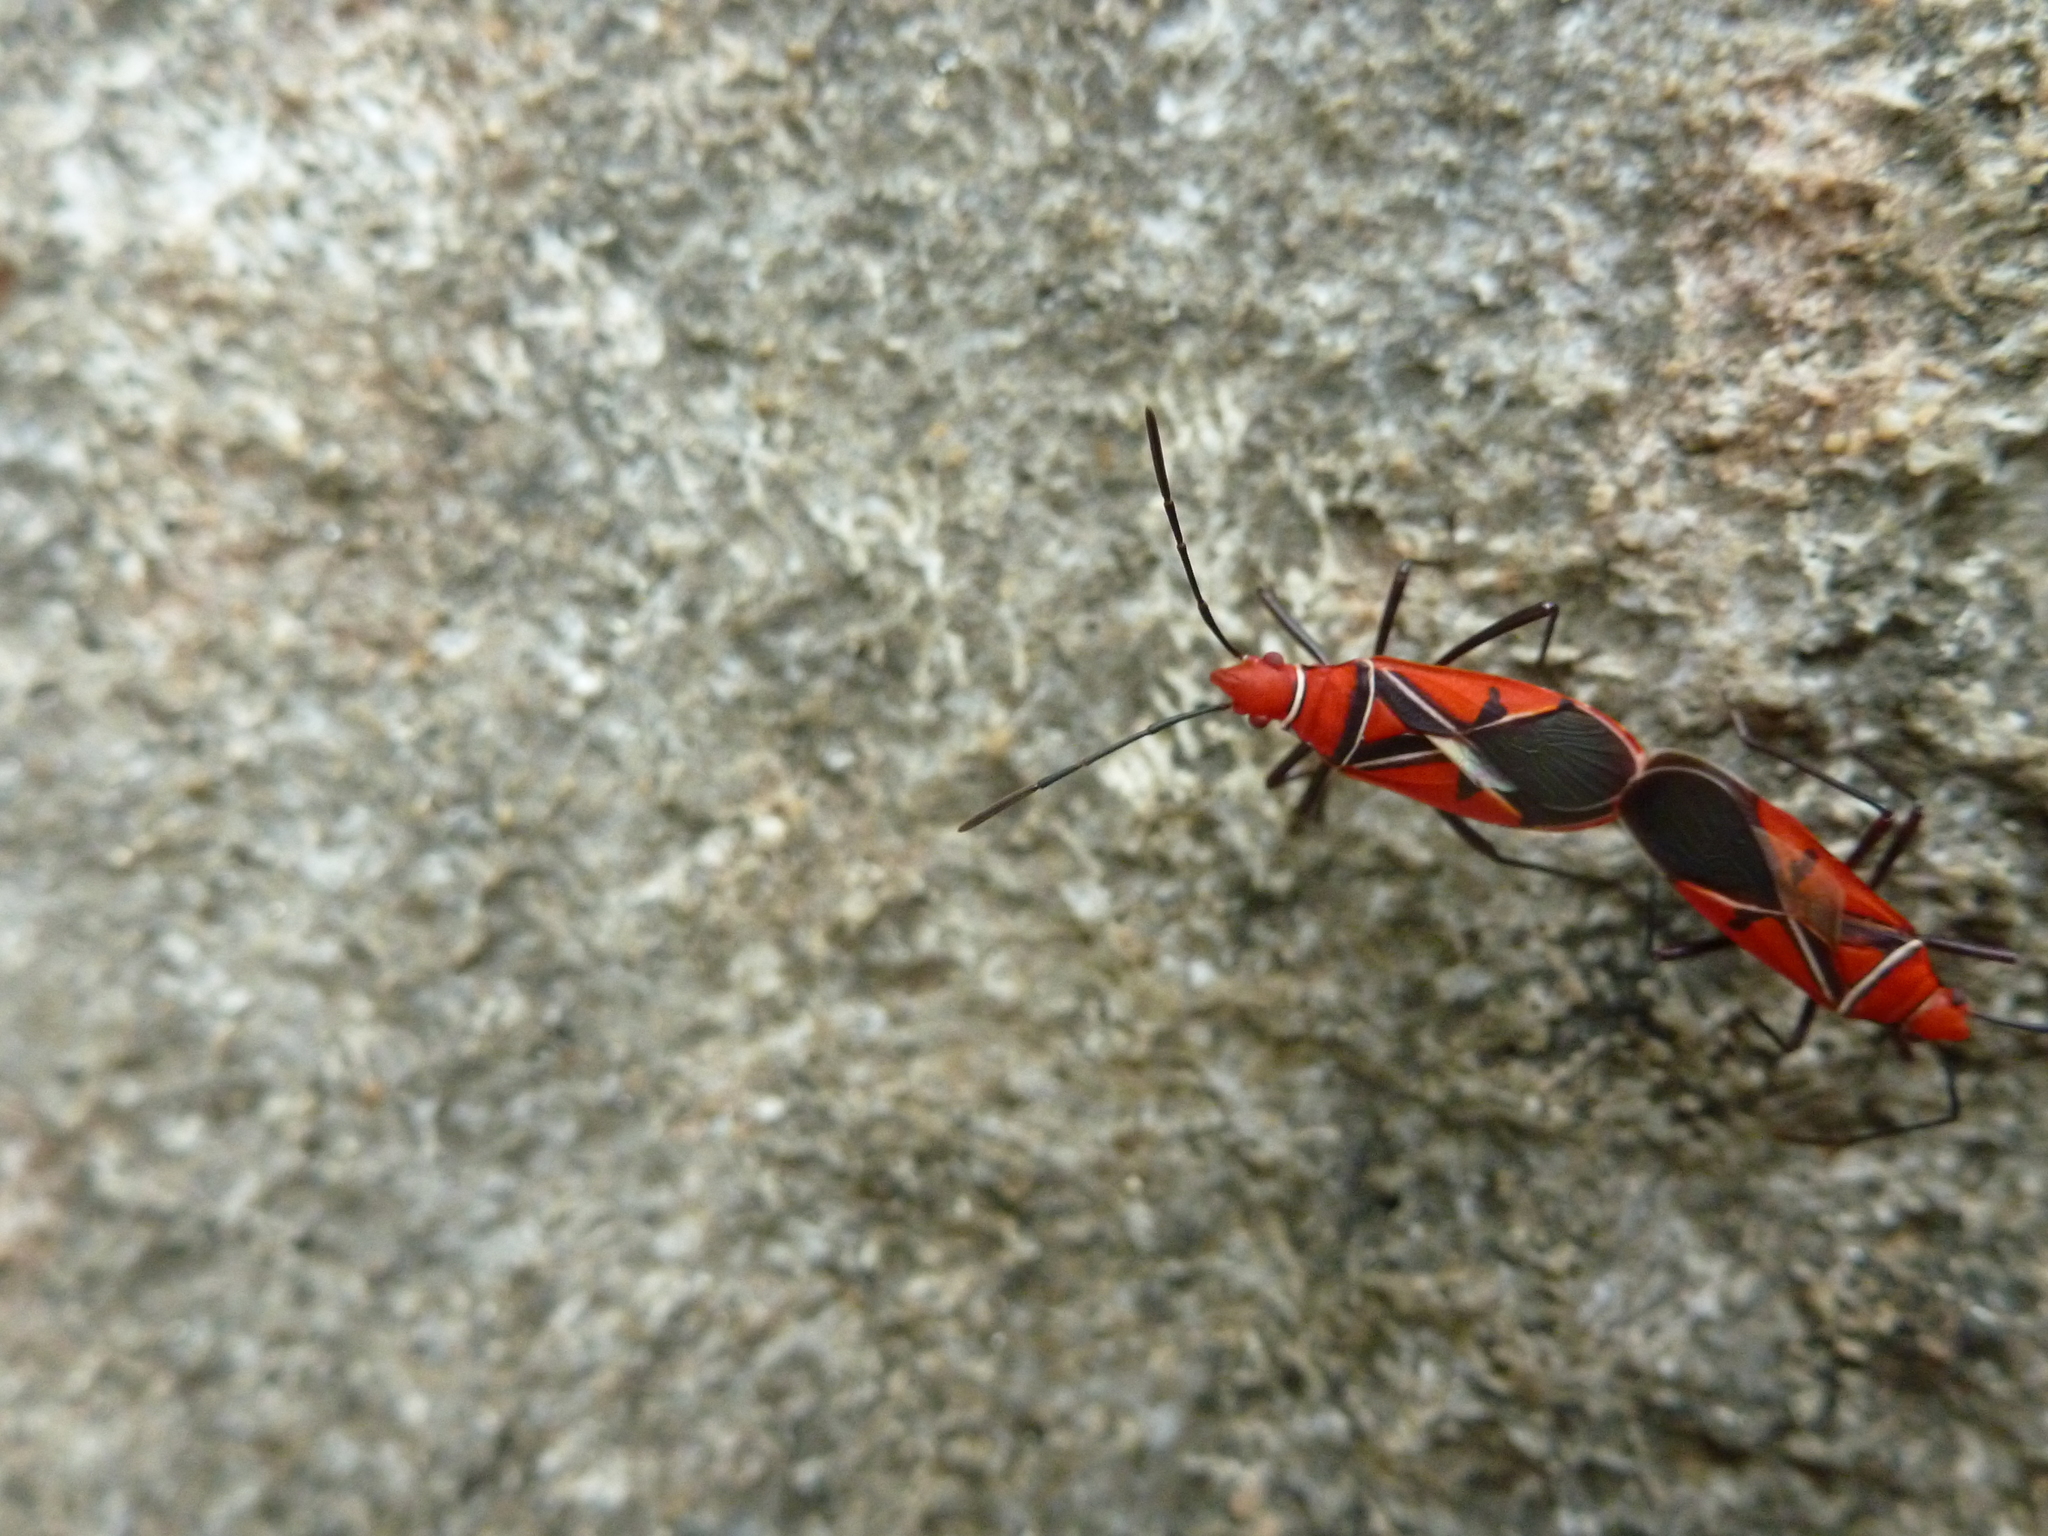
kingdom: Animalia
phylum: Arthropoda
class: Insecta
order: Hemiptera
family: Pyrrhocoridae
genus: Dysdercus
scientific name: Dysdercus andreae
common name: St. andrew's cotton stainer
